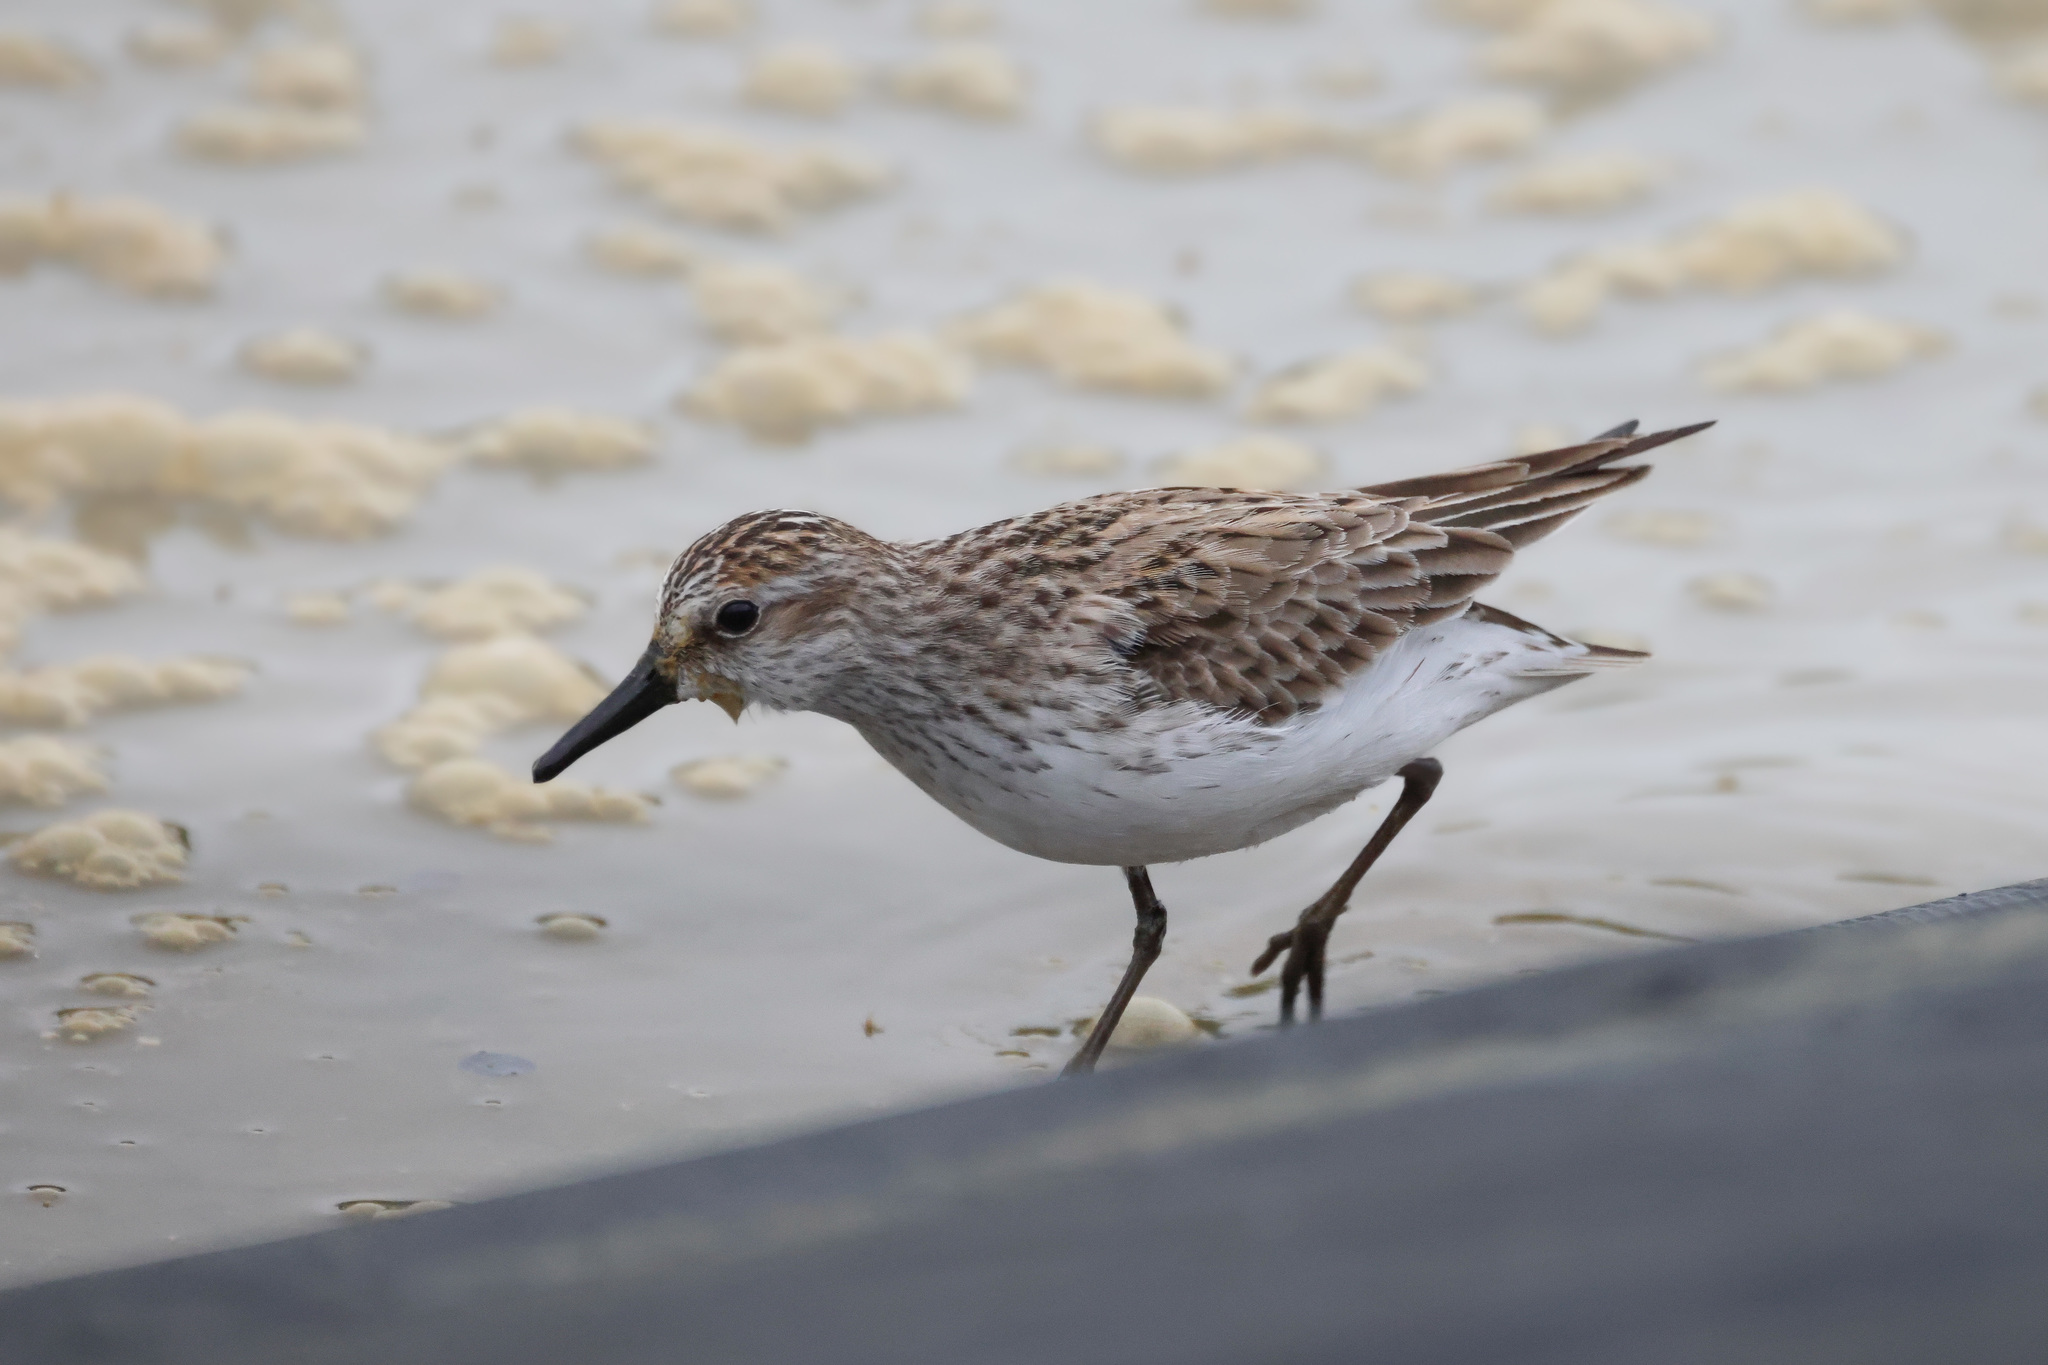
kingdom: Animalia
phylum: Chordata
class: Aves
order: Charadriiformes
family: Scolopacidae
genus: Calidris
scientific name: Calidris pusilla
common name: Semipalmated sandpiper
